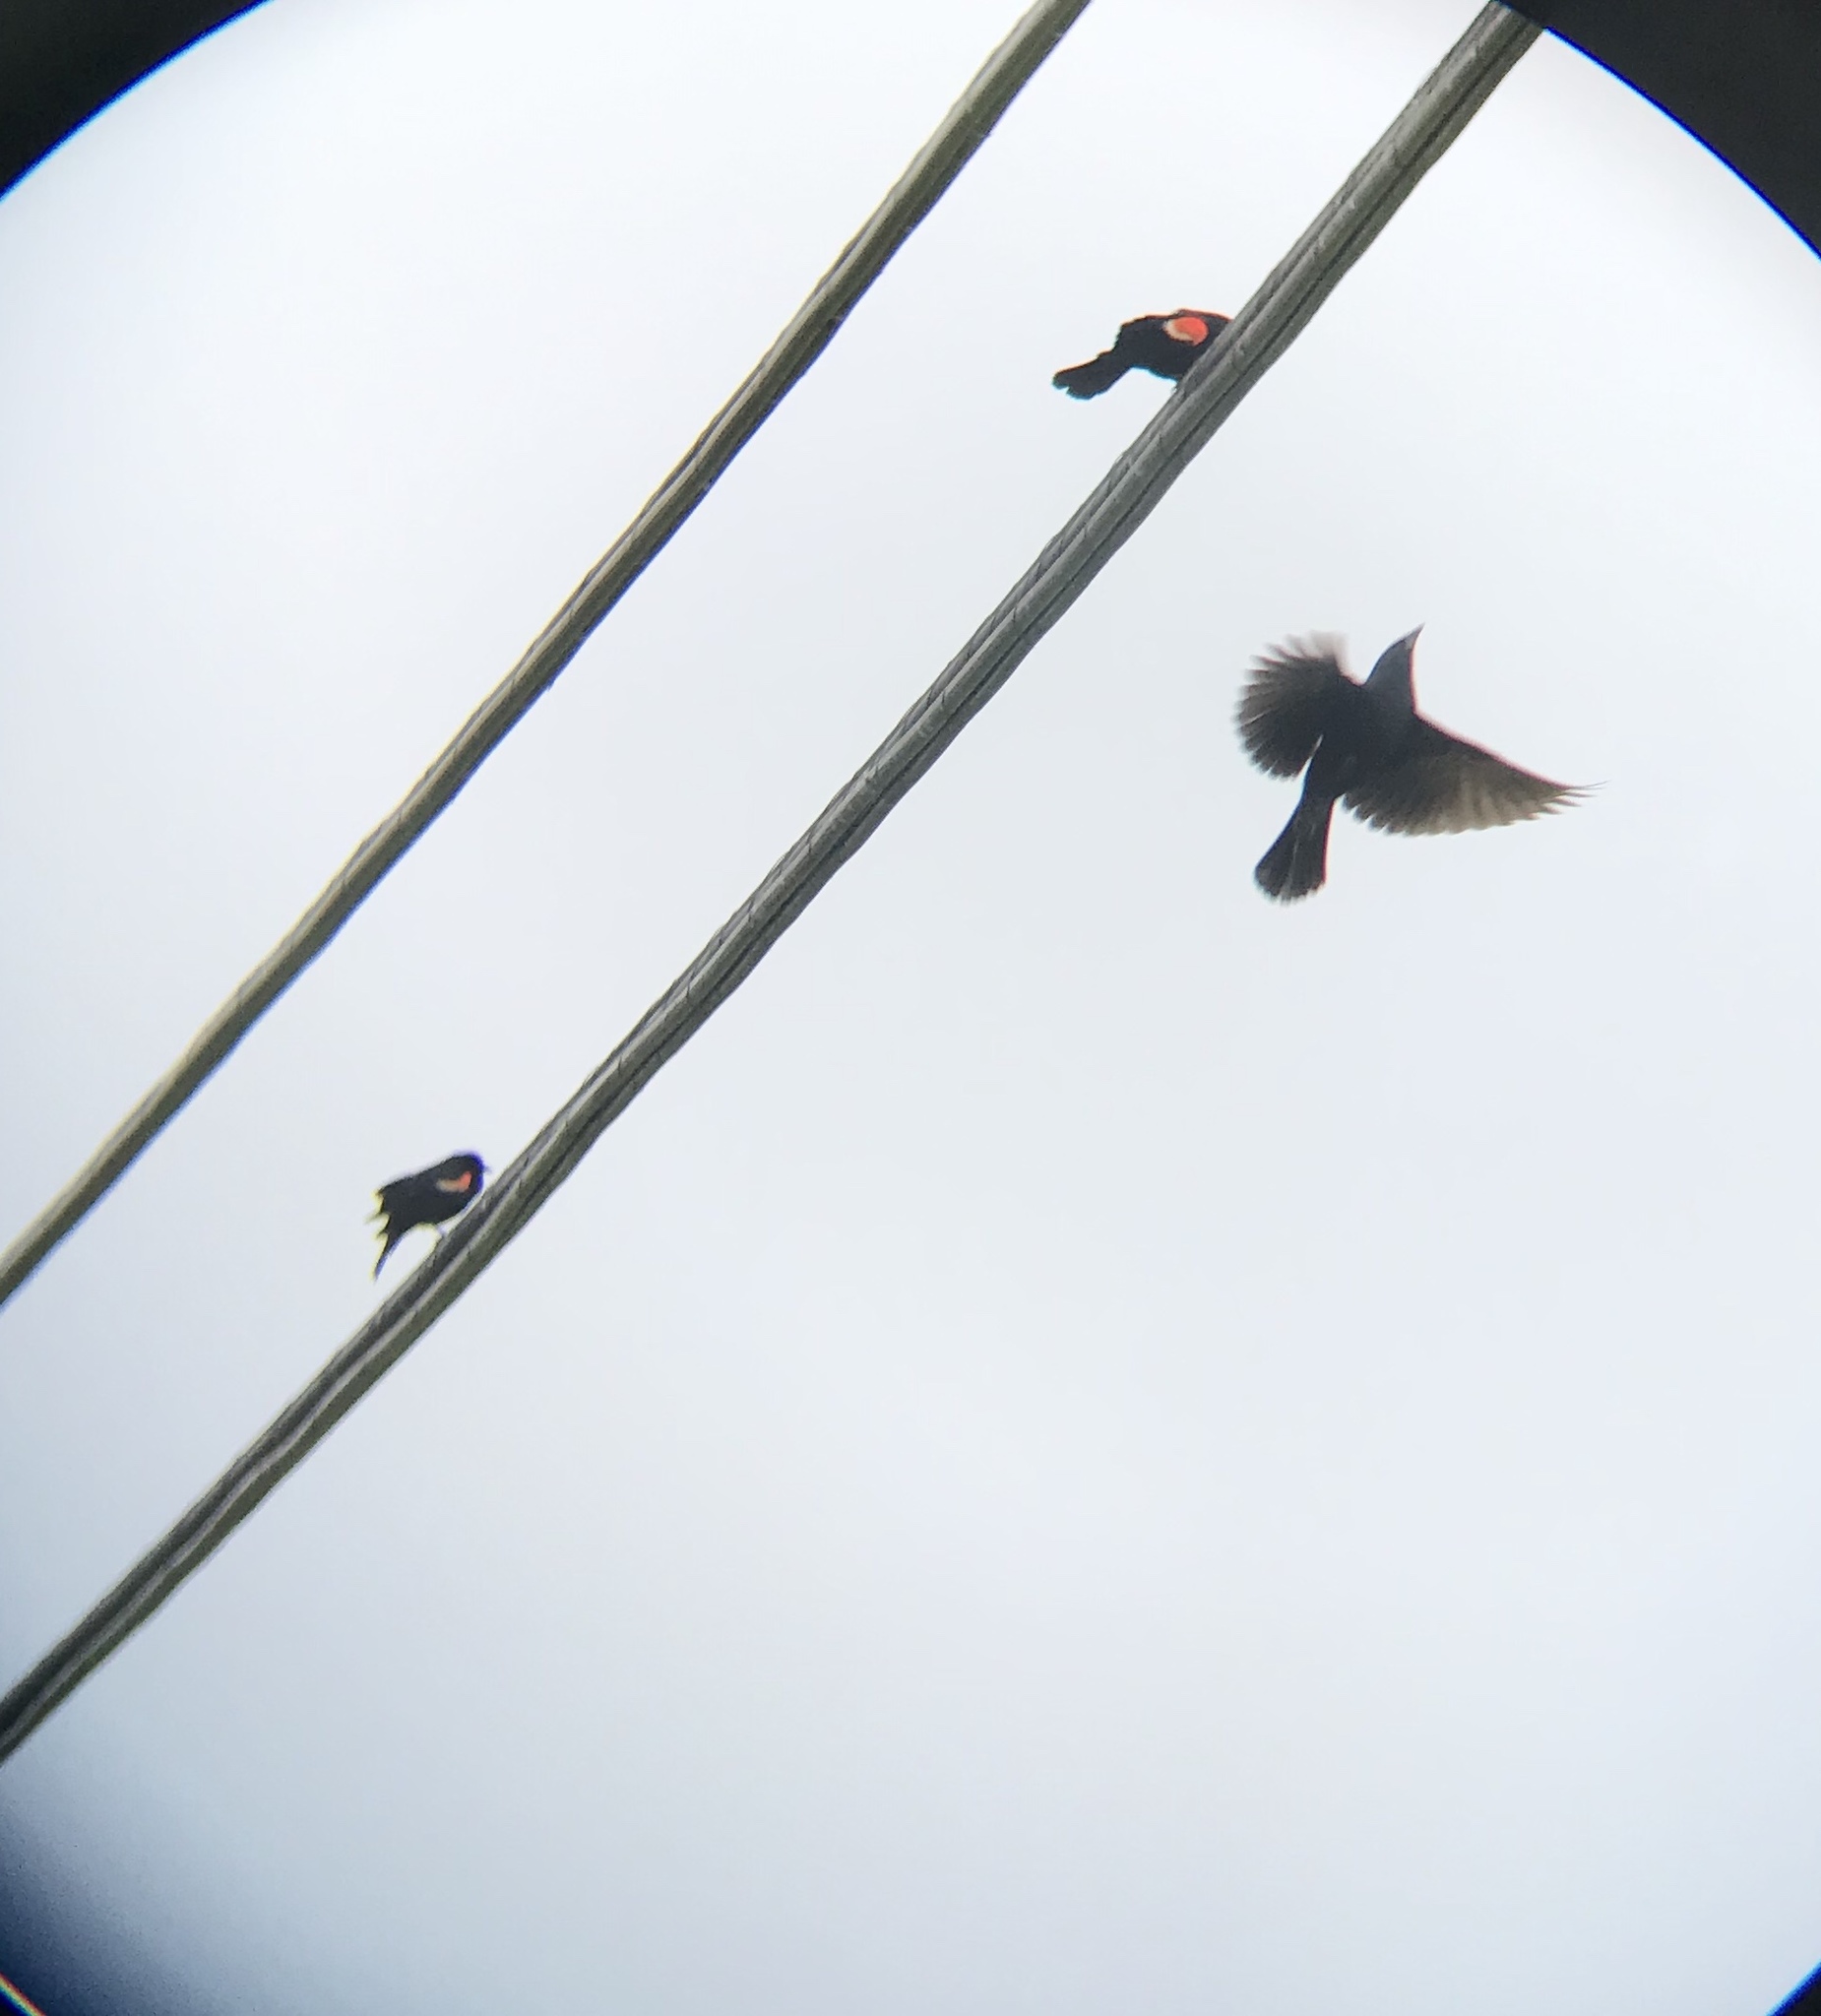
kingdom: Animalia
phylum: Chordata
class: Aves
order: Passeriformes
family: Icteridae
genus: Agelaius
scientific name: Agelaius phoeniceus
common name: Red-winged blackbird
